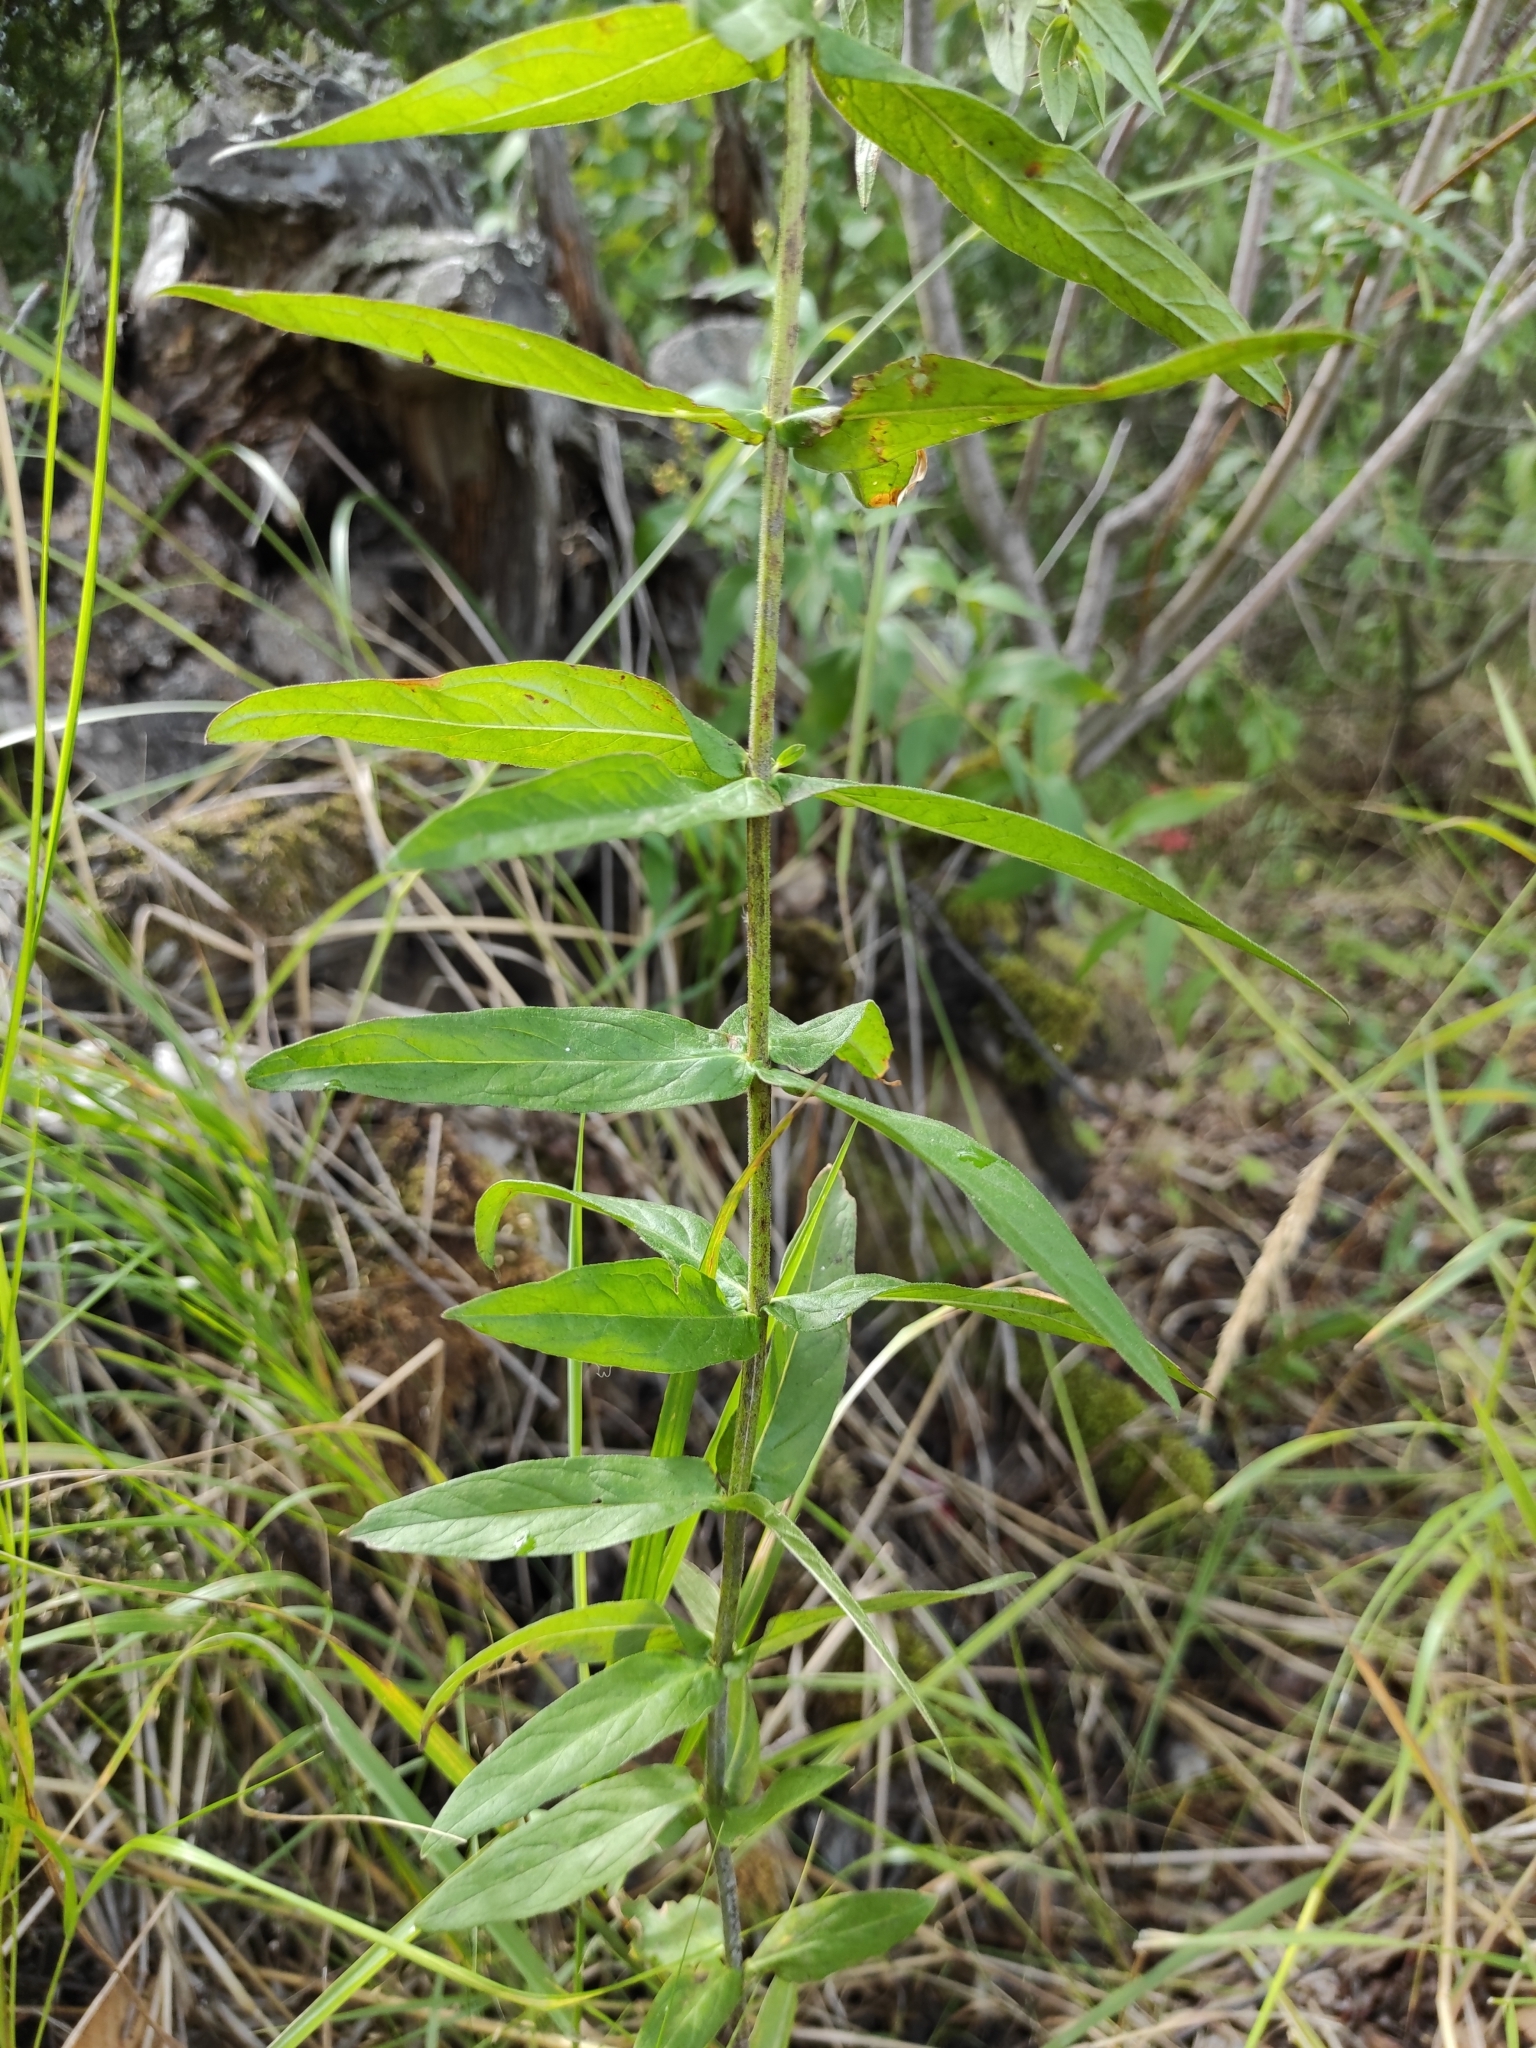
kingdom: Plantae
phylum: Tracheophyta
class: Magnoliopsida
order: Myrtales
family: Lythraceae
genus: Lythrum
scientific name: Lythrum salicaria
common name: Purple loosestrife
